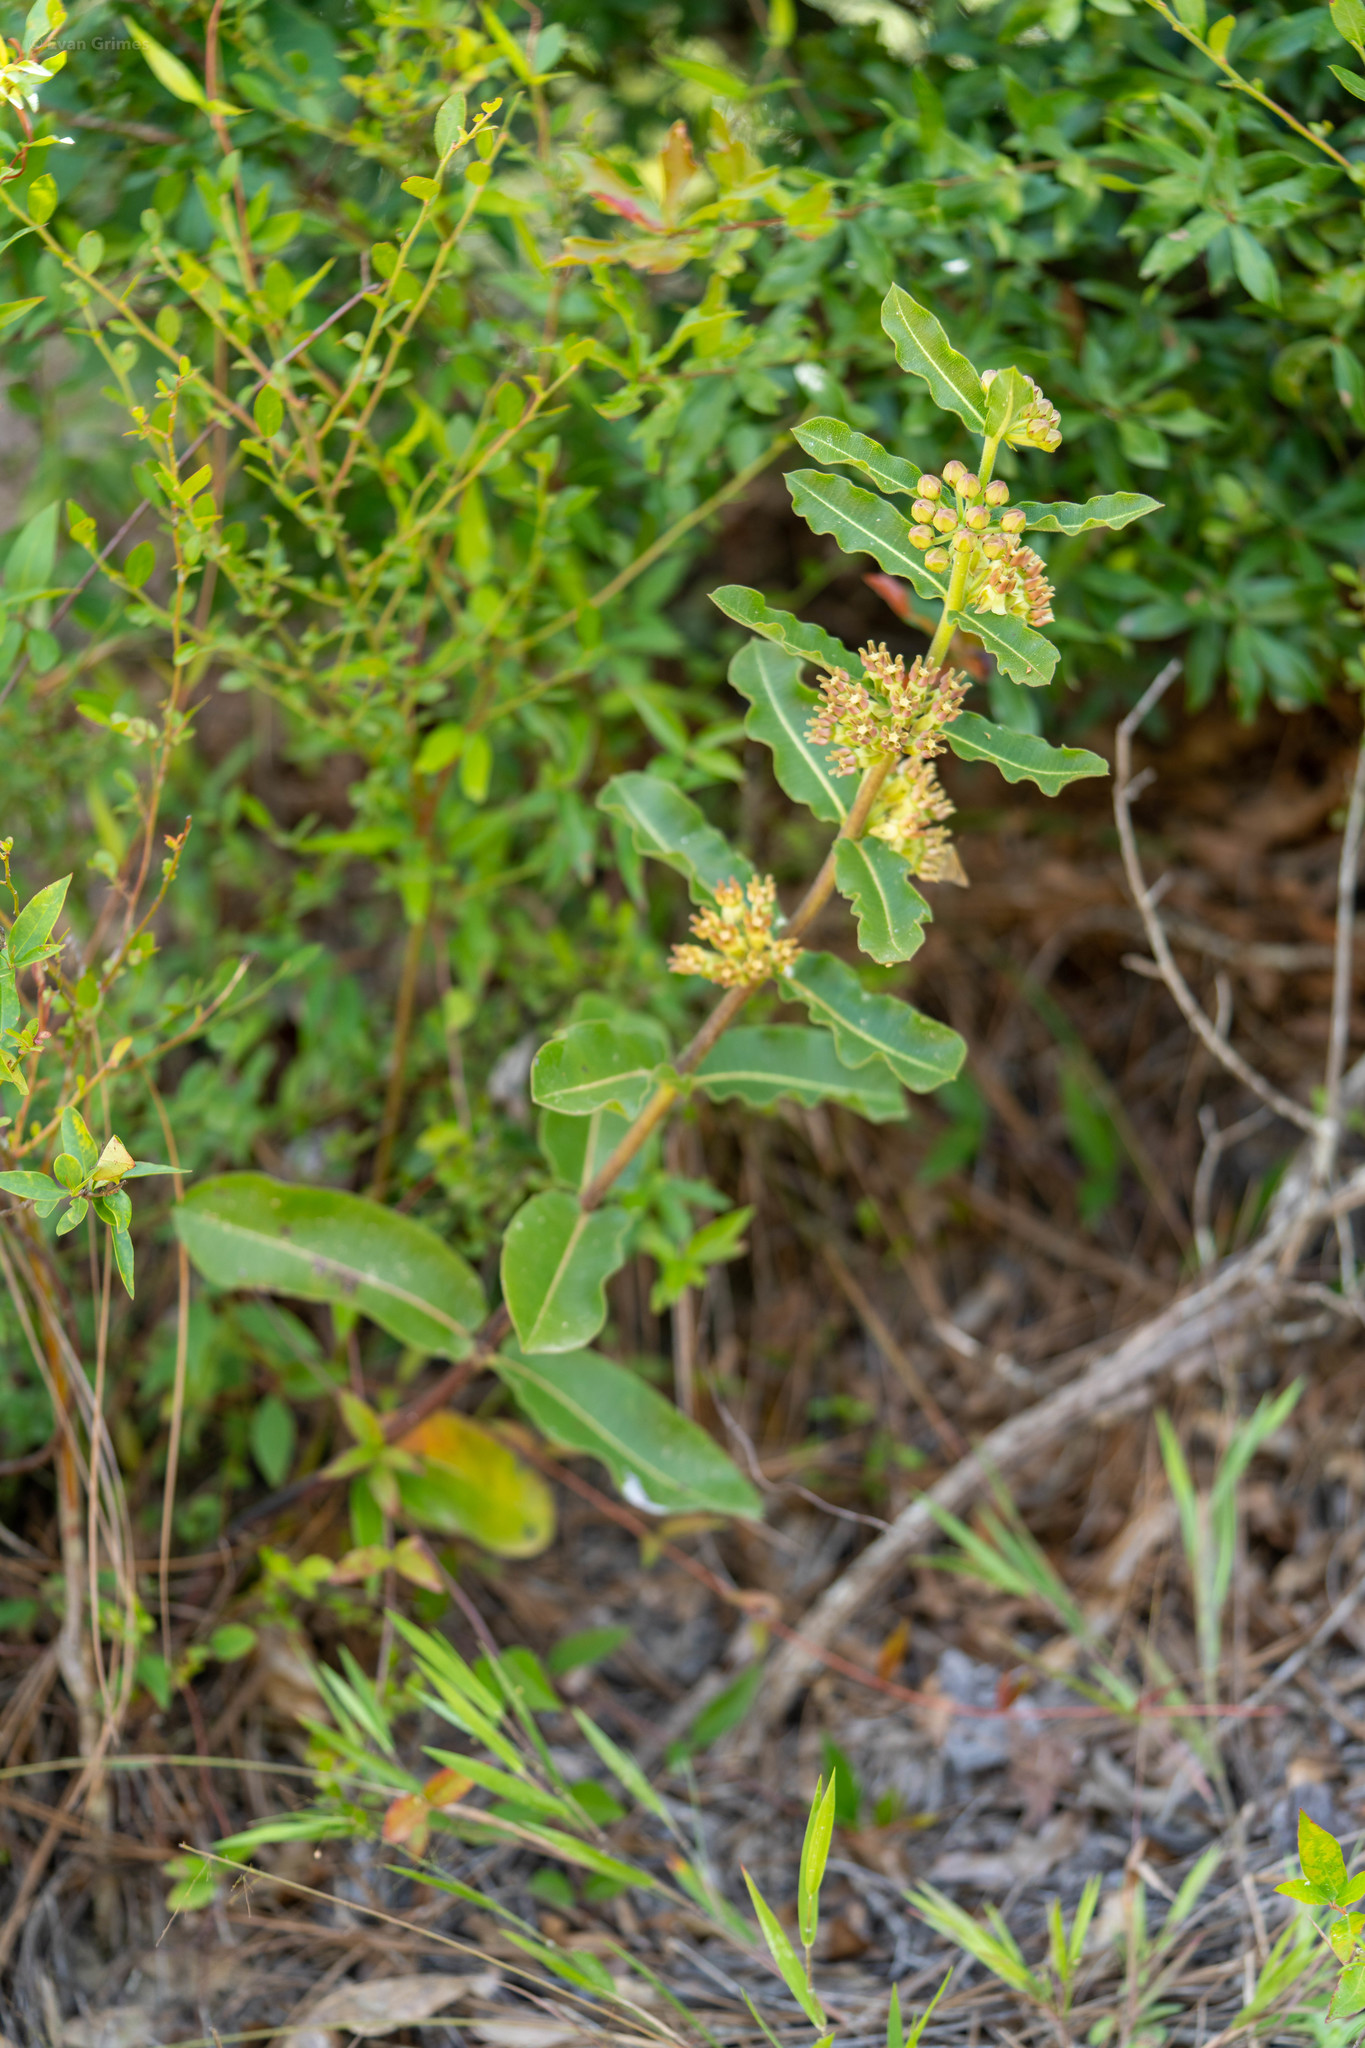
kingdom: Plantae
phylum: Tracheophyta
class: Magnoliopsida
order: Gentianales
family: Apocynaceae
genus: Asclepias
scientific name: Asclepias obovata
